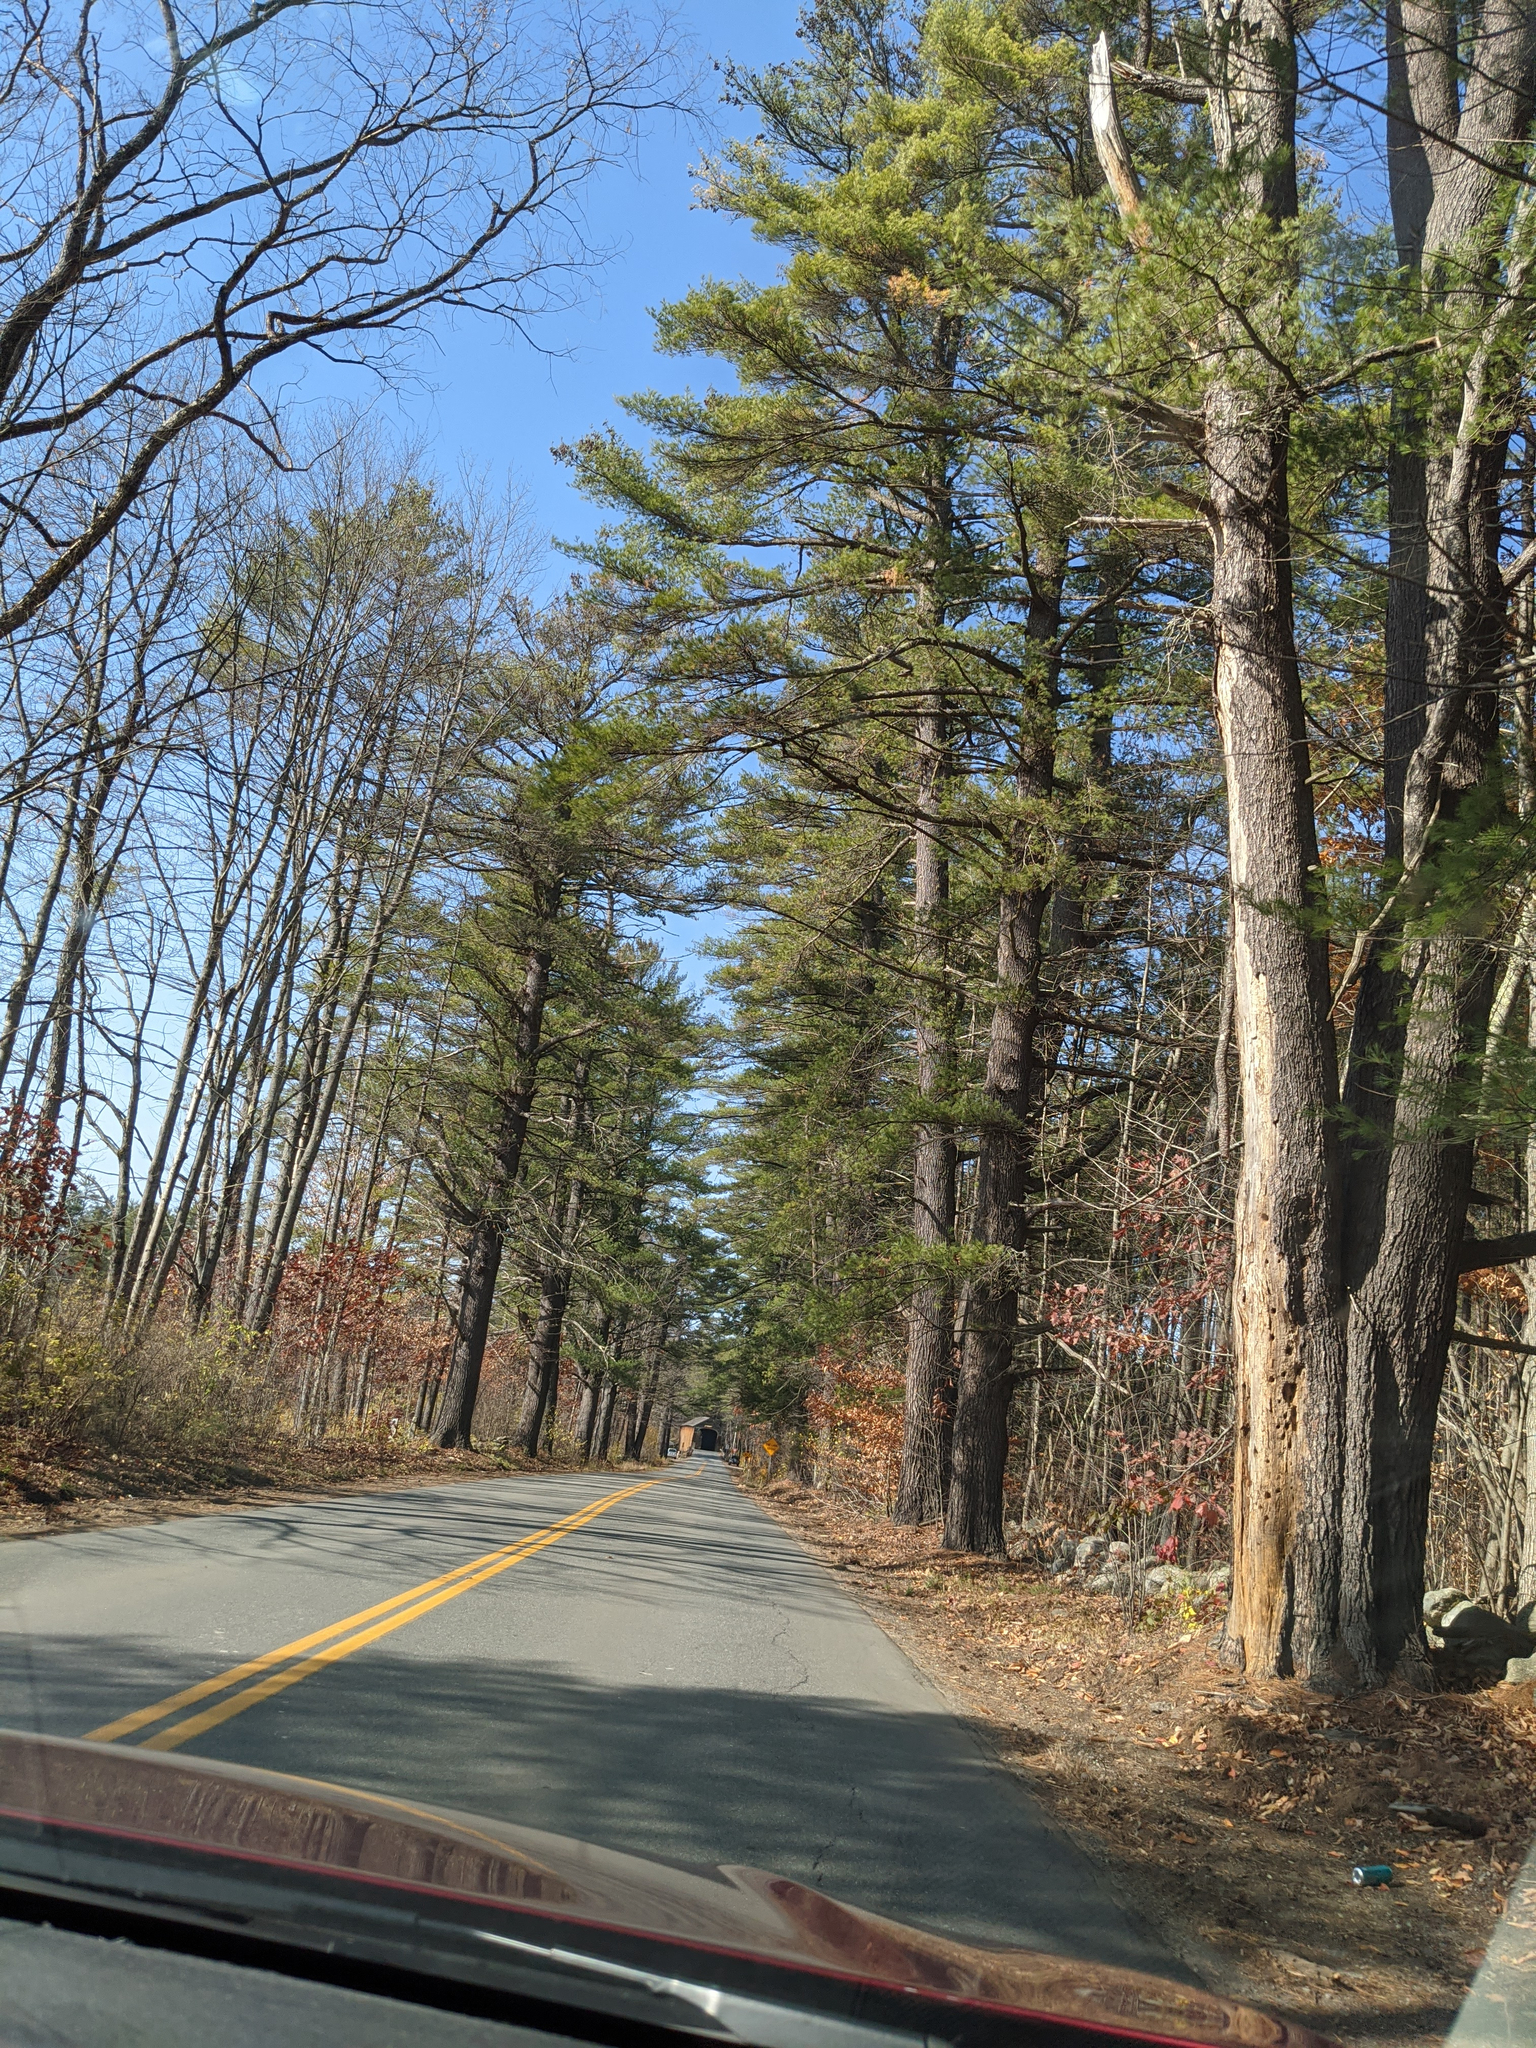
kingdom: Plantae
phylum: Tracheophyta
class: Pinopsida
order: Pinales
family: Pinaceae
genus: Pinus
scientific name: Pinus strobus
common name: Weymouth pine
